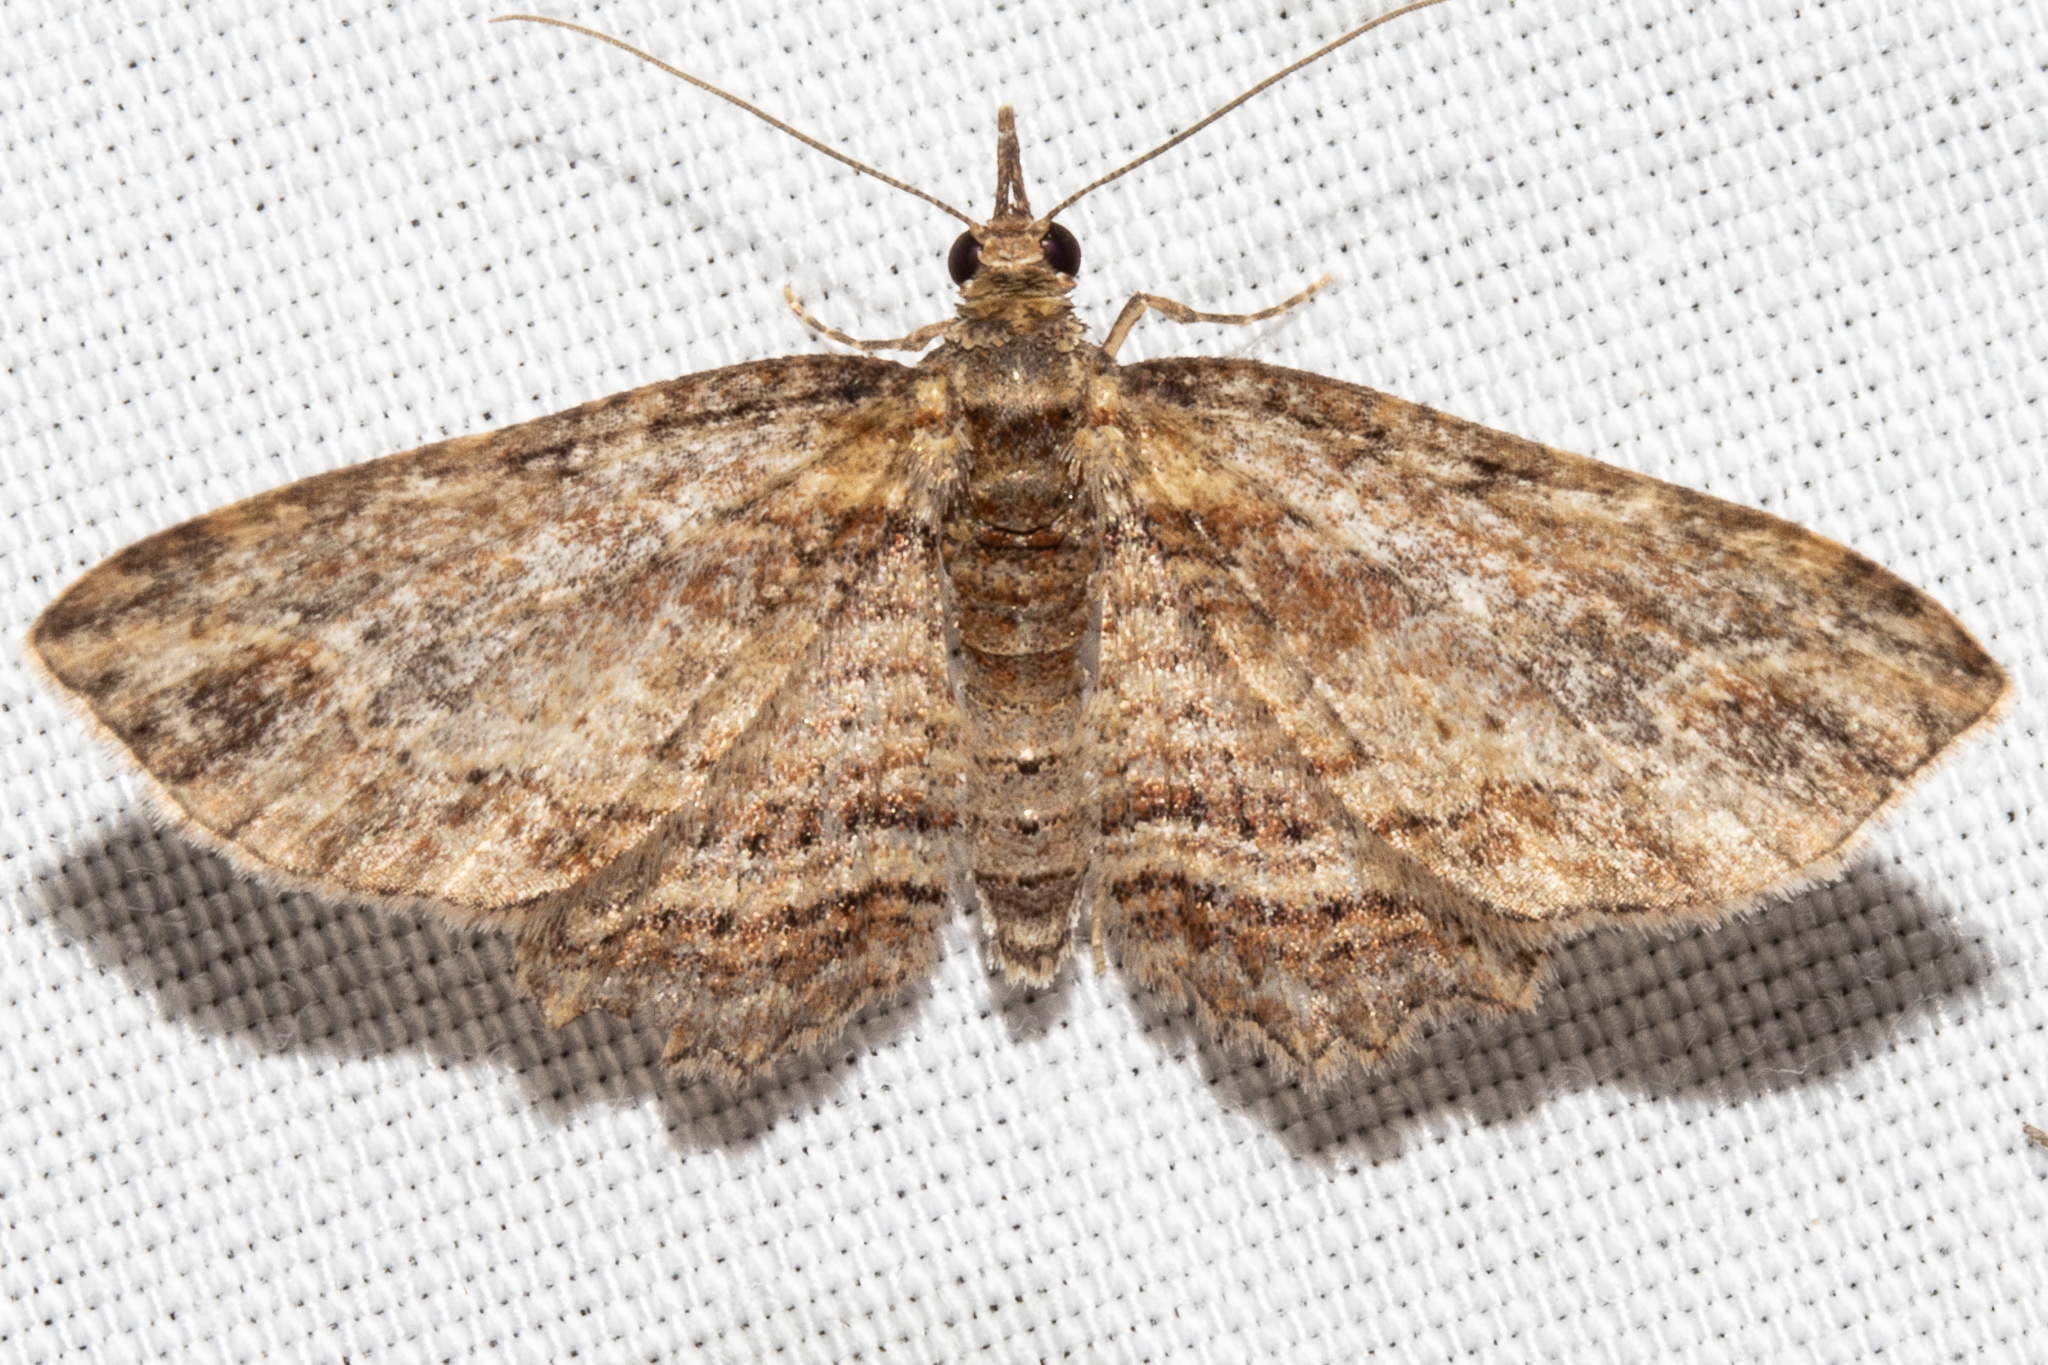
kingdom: Animalia
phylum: Arthropoda
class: Insecta
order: Lepidoptera
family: Geometridae
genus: Chloroclystis
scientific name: Chloroclystis filata
